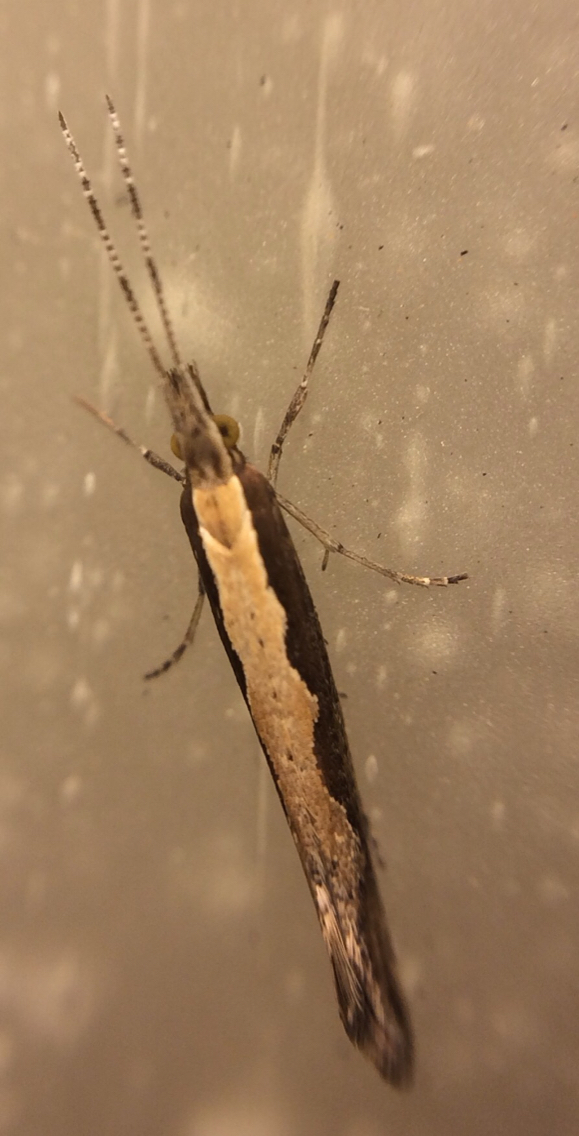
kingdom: Animalia
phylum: Arthropoda
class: Insecta
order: Lepidoptera
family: Plutellidae
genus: Plutella
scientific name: Plutella xylostella
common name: Diamond-back moth
